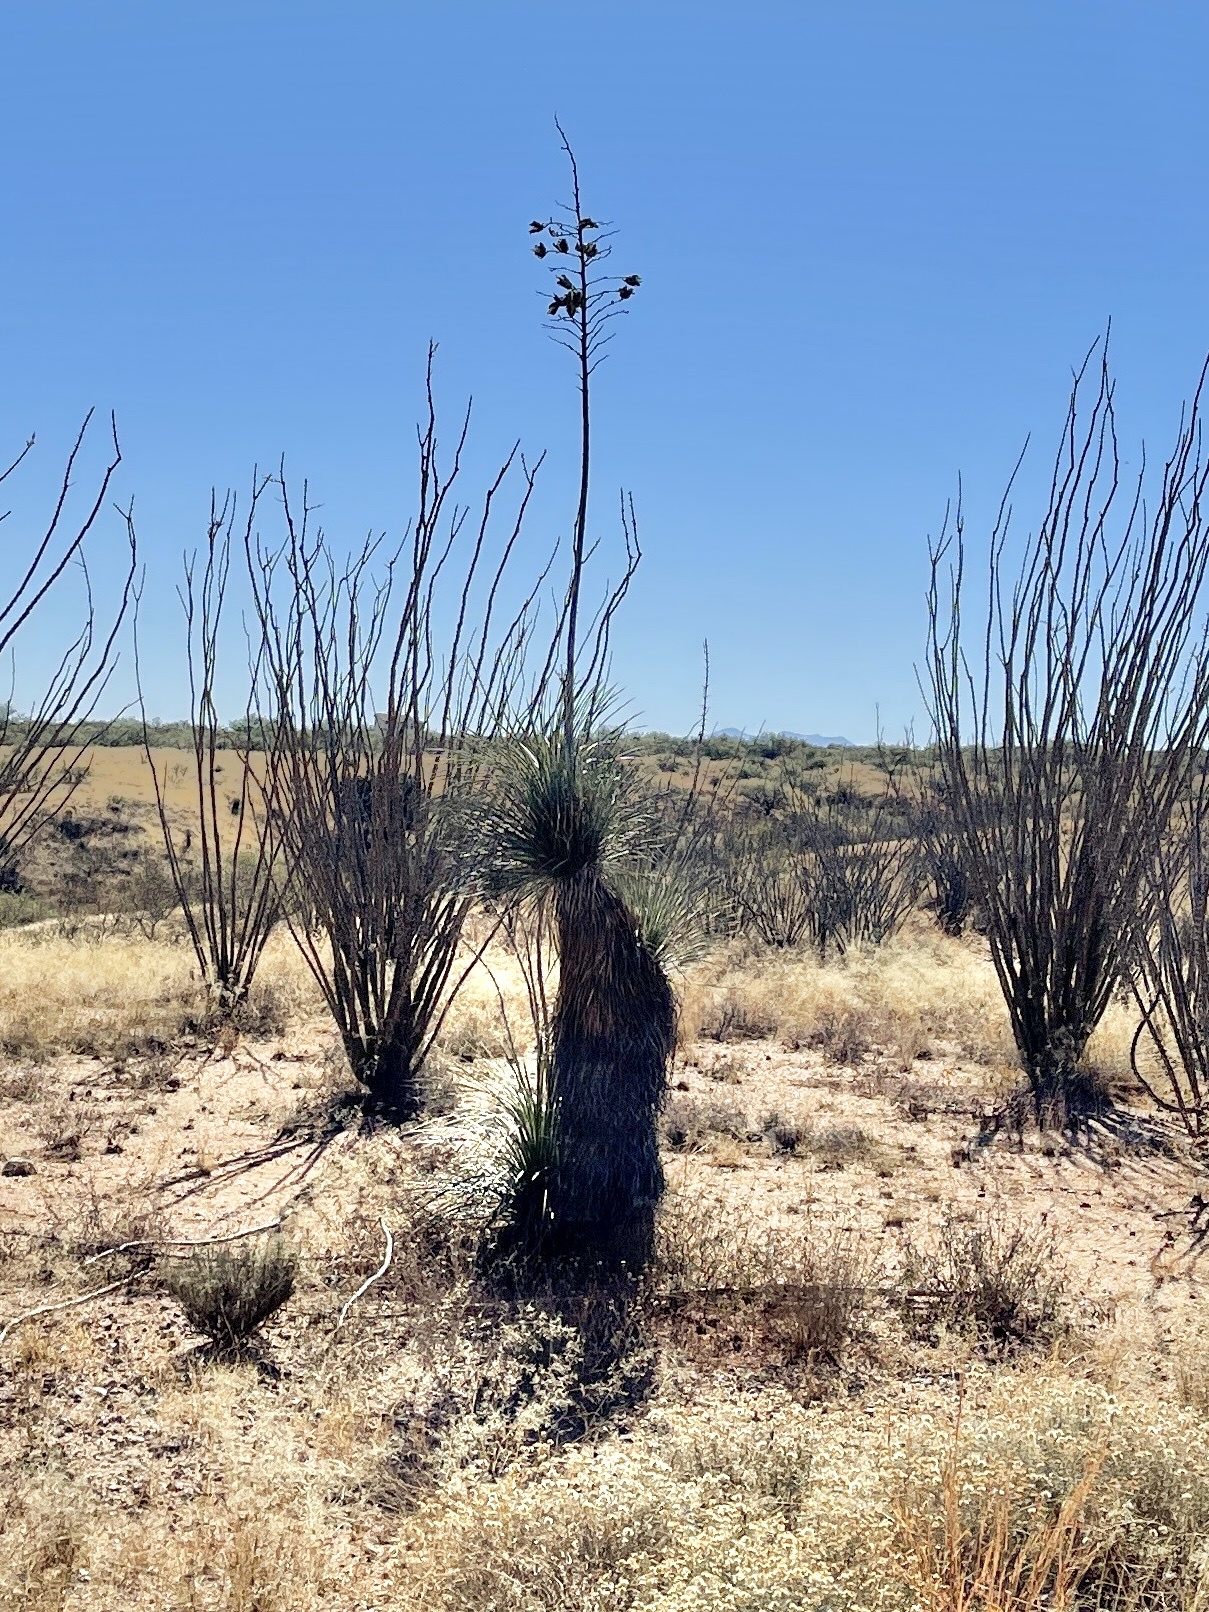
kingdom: Plantae
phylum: Tracheophyta
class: Liliopsida
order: Asparagales
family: Asparagaceae
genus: Yucca
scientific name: Yucca elata
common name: Palmella
